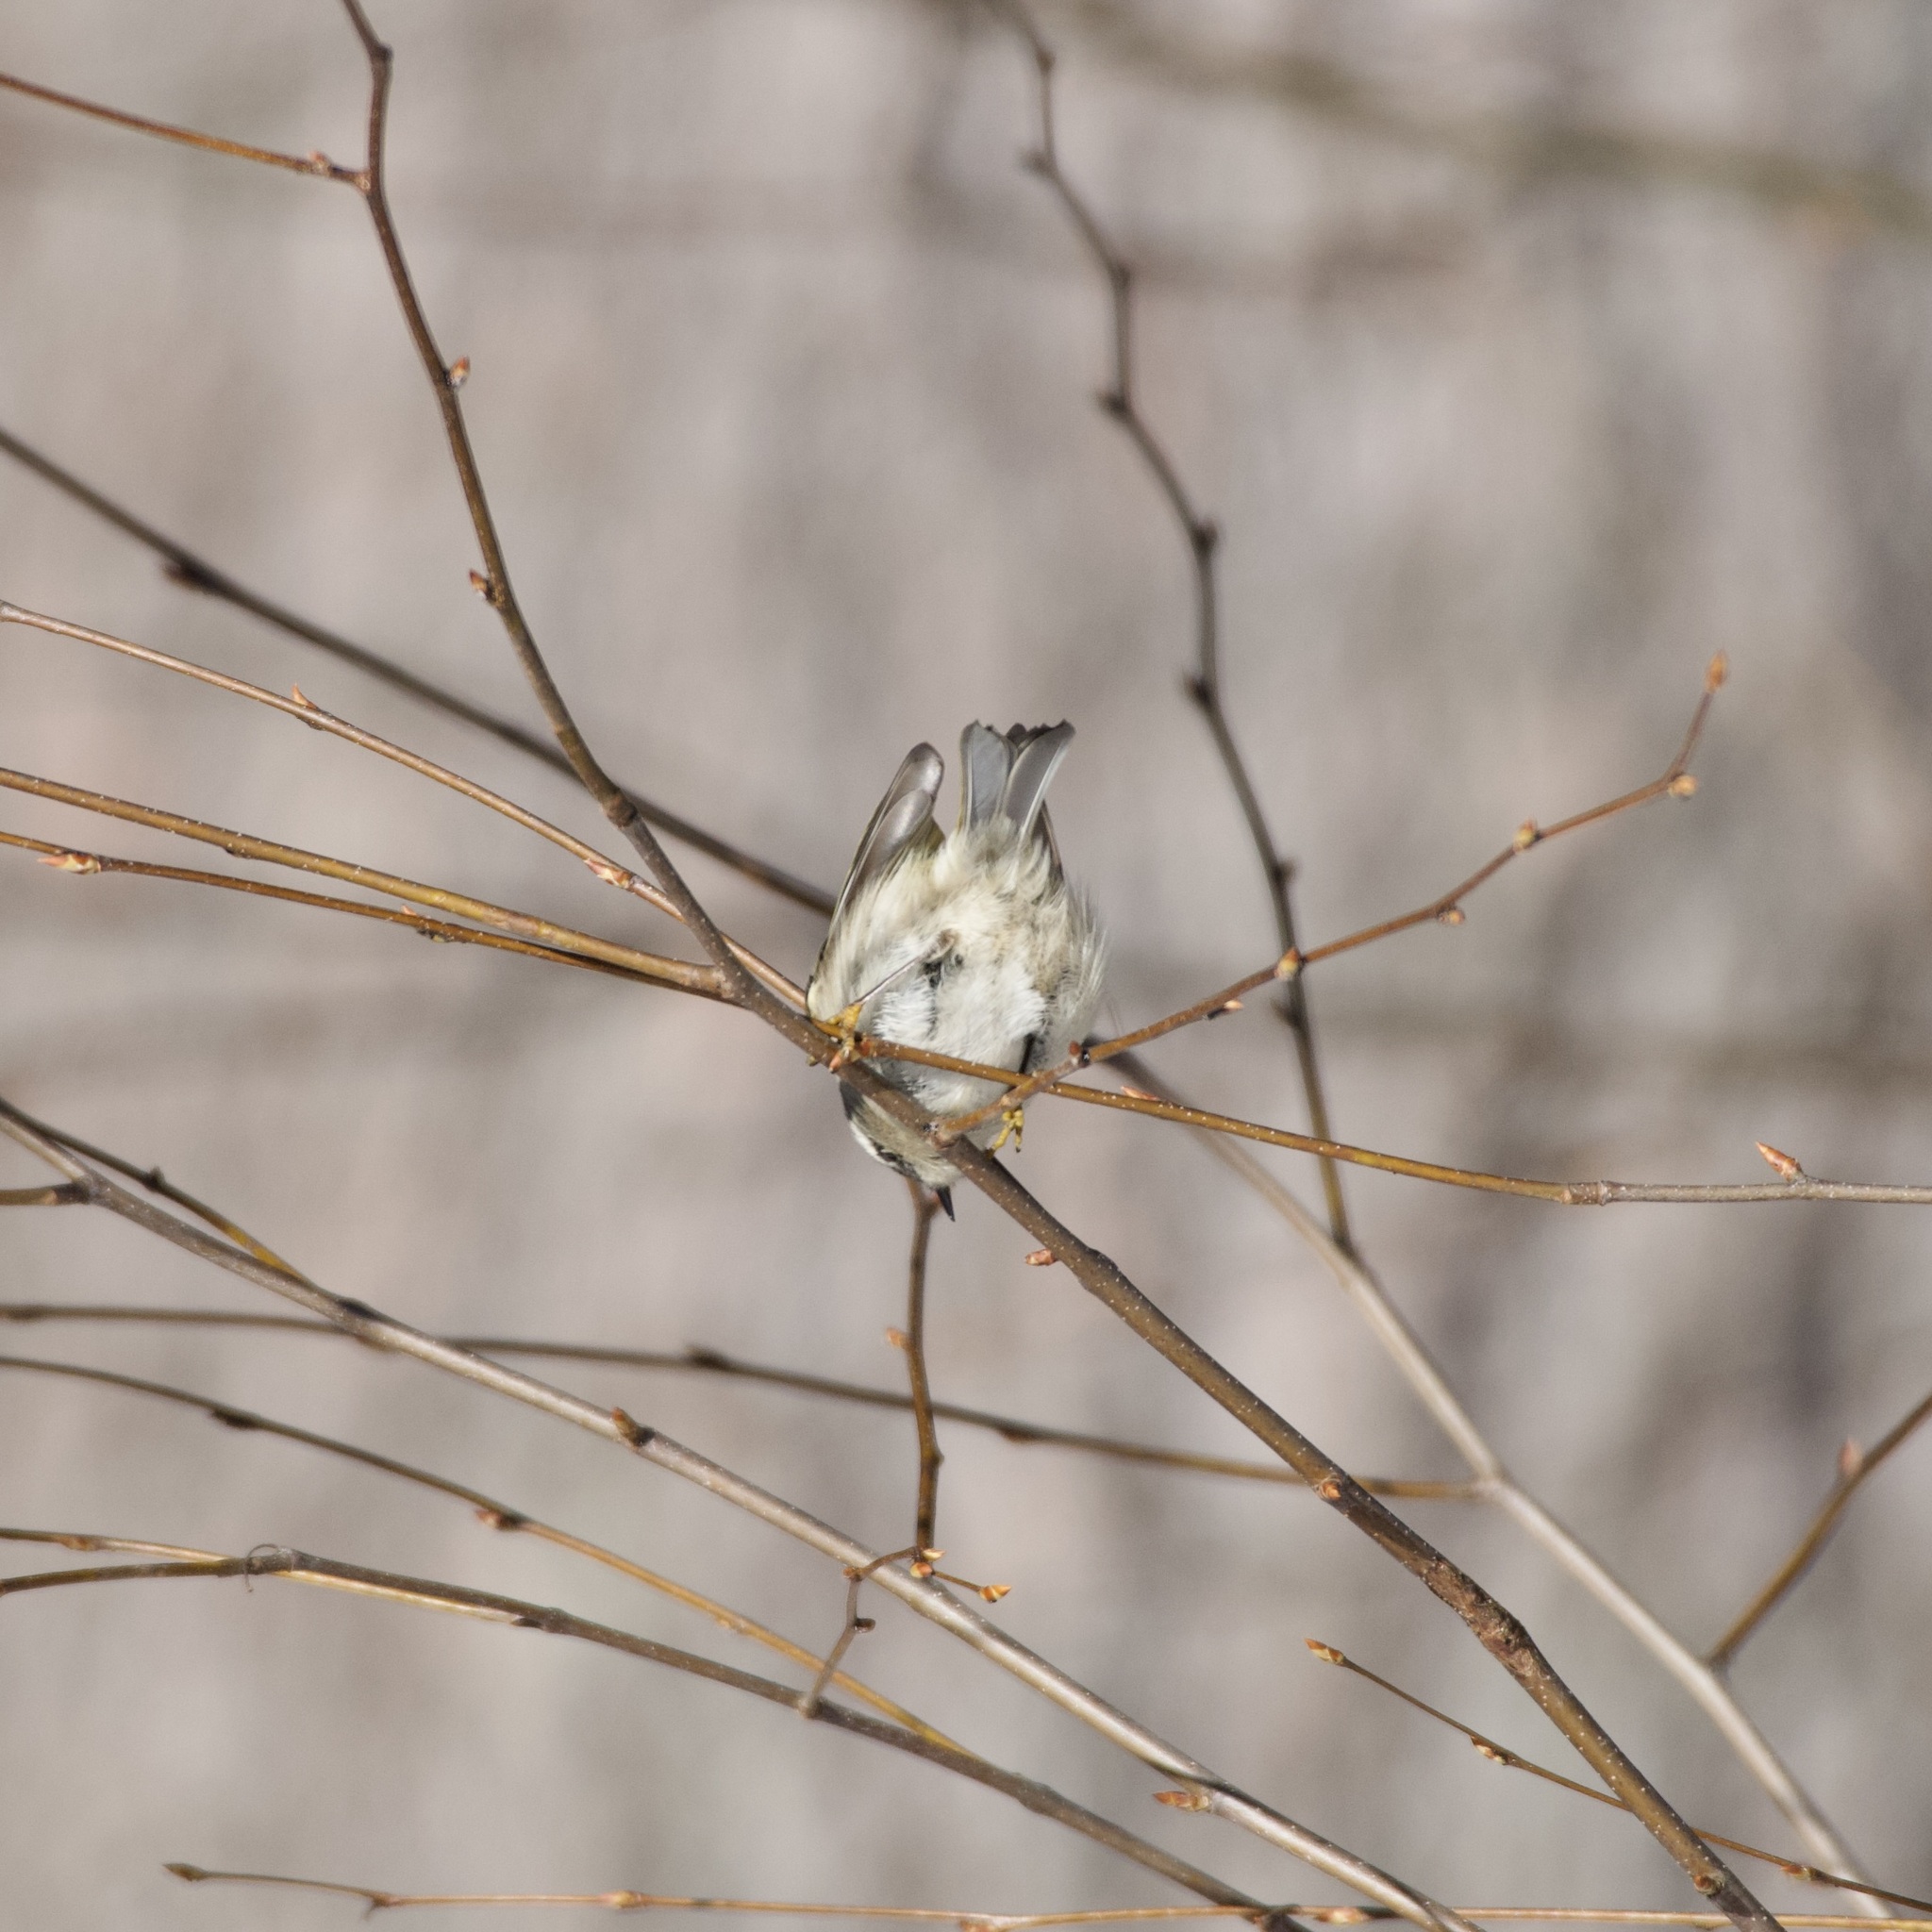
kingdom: Animalia
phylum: Chordata
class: Aves
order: Passeriformes
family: Regulidae
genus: Regulus
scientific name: Regulus satrapa
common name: Golden-crowned kinglet
